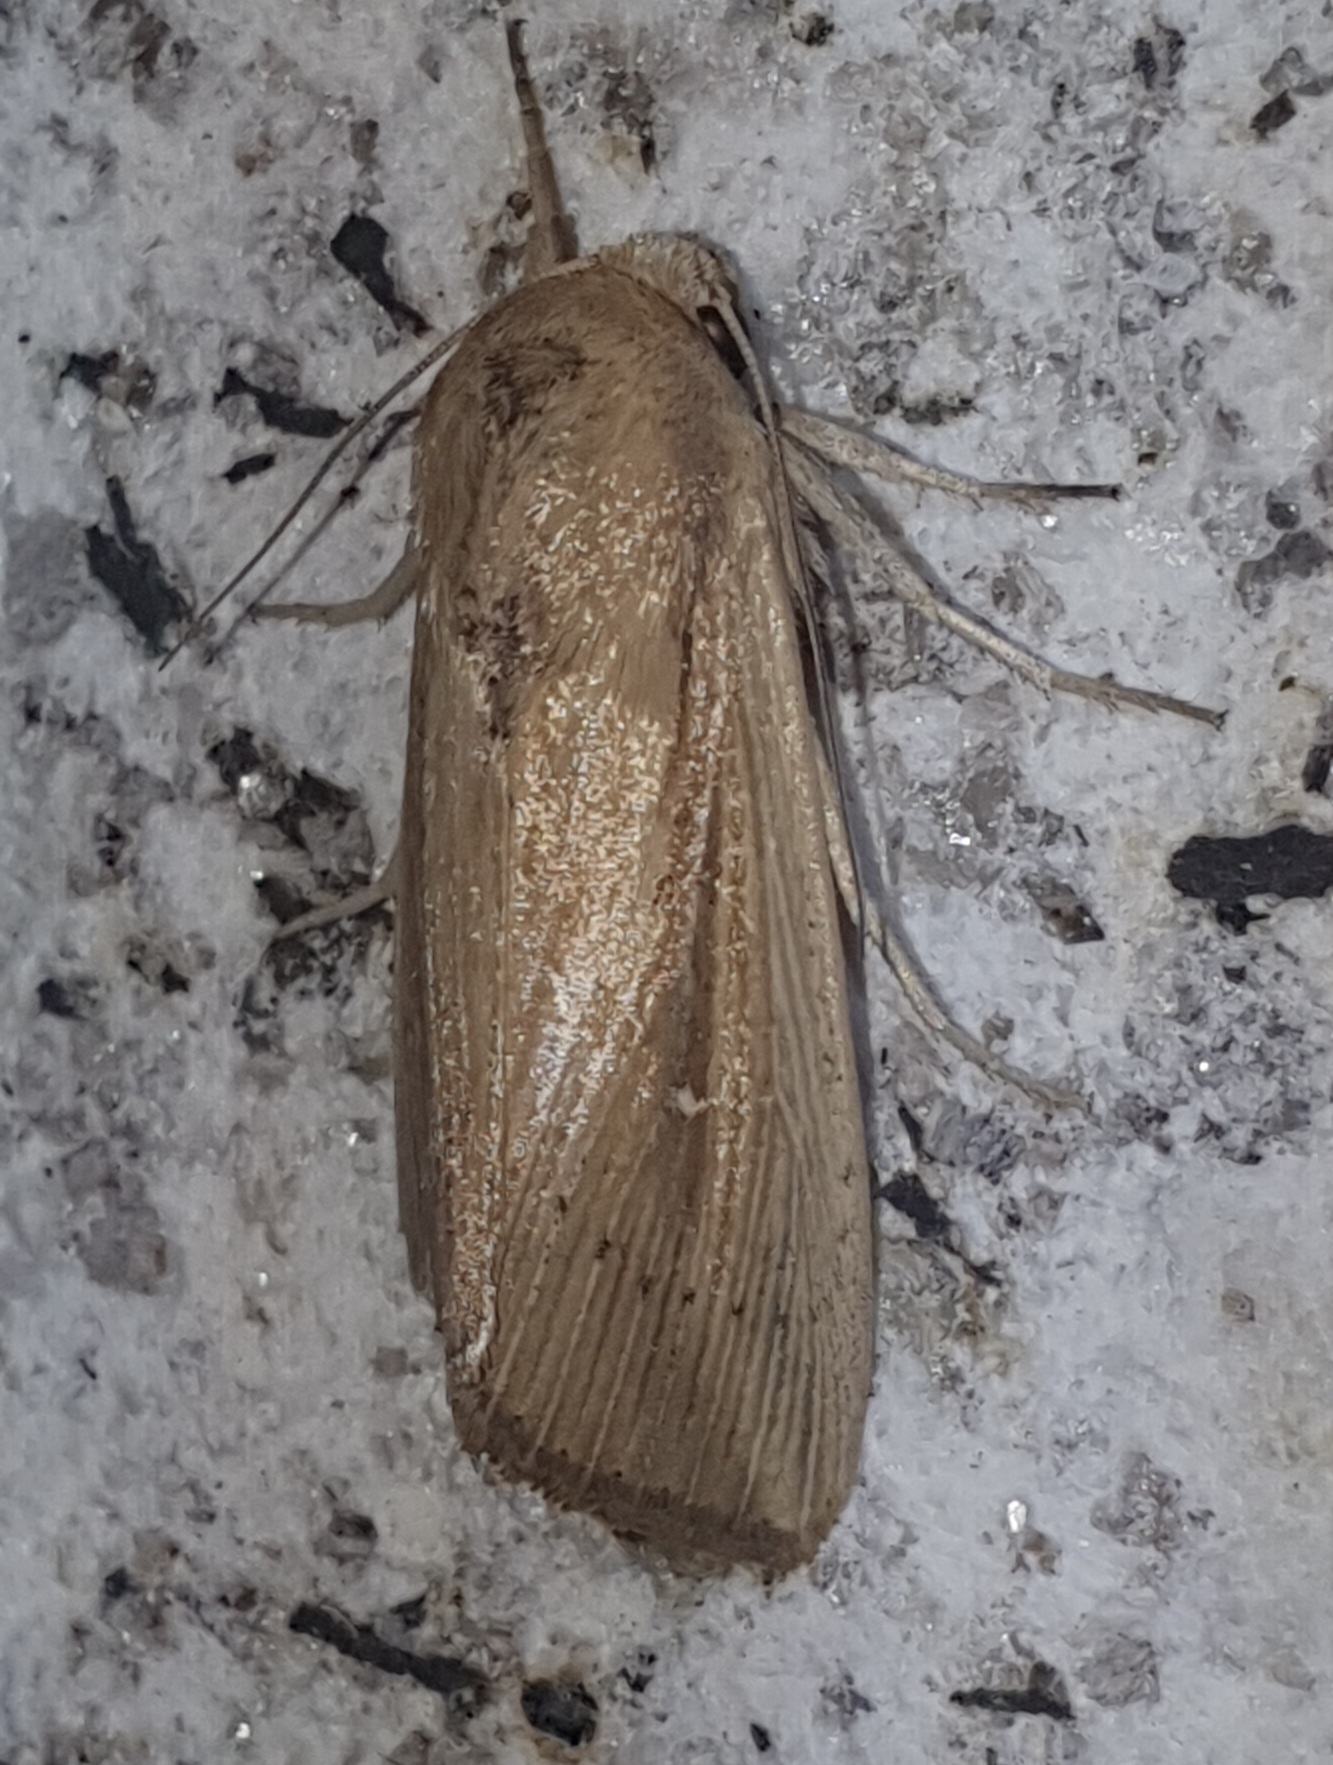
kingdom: Animalia
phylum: Arthropoda
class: Insecta
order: Lepidoptera
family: Noctuidae
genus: Leucania
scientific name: Leucania loreyi
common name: The cosmopolitan
